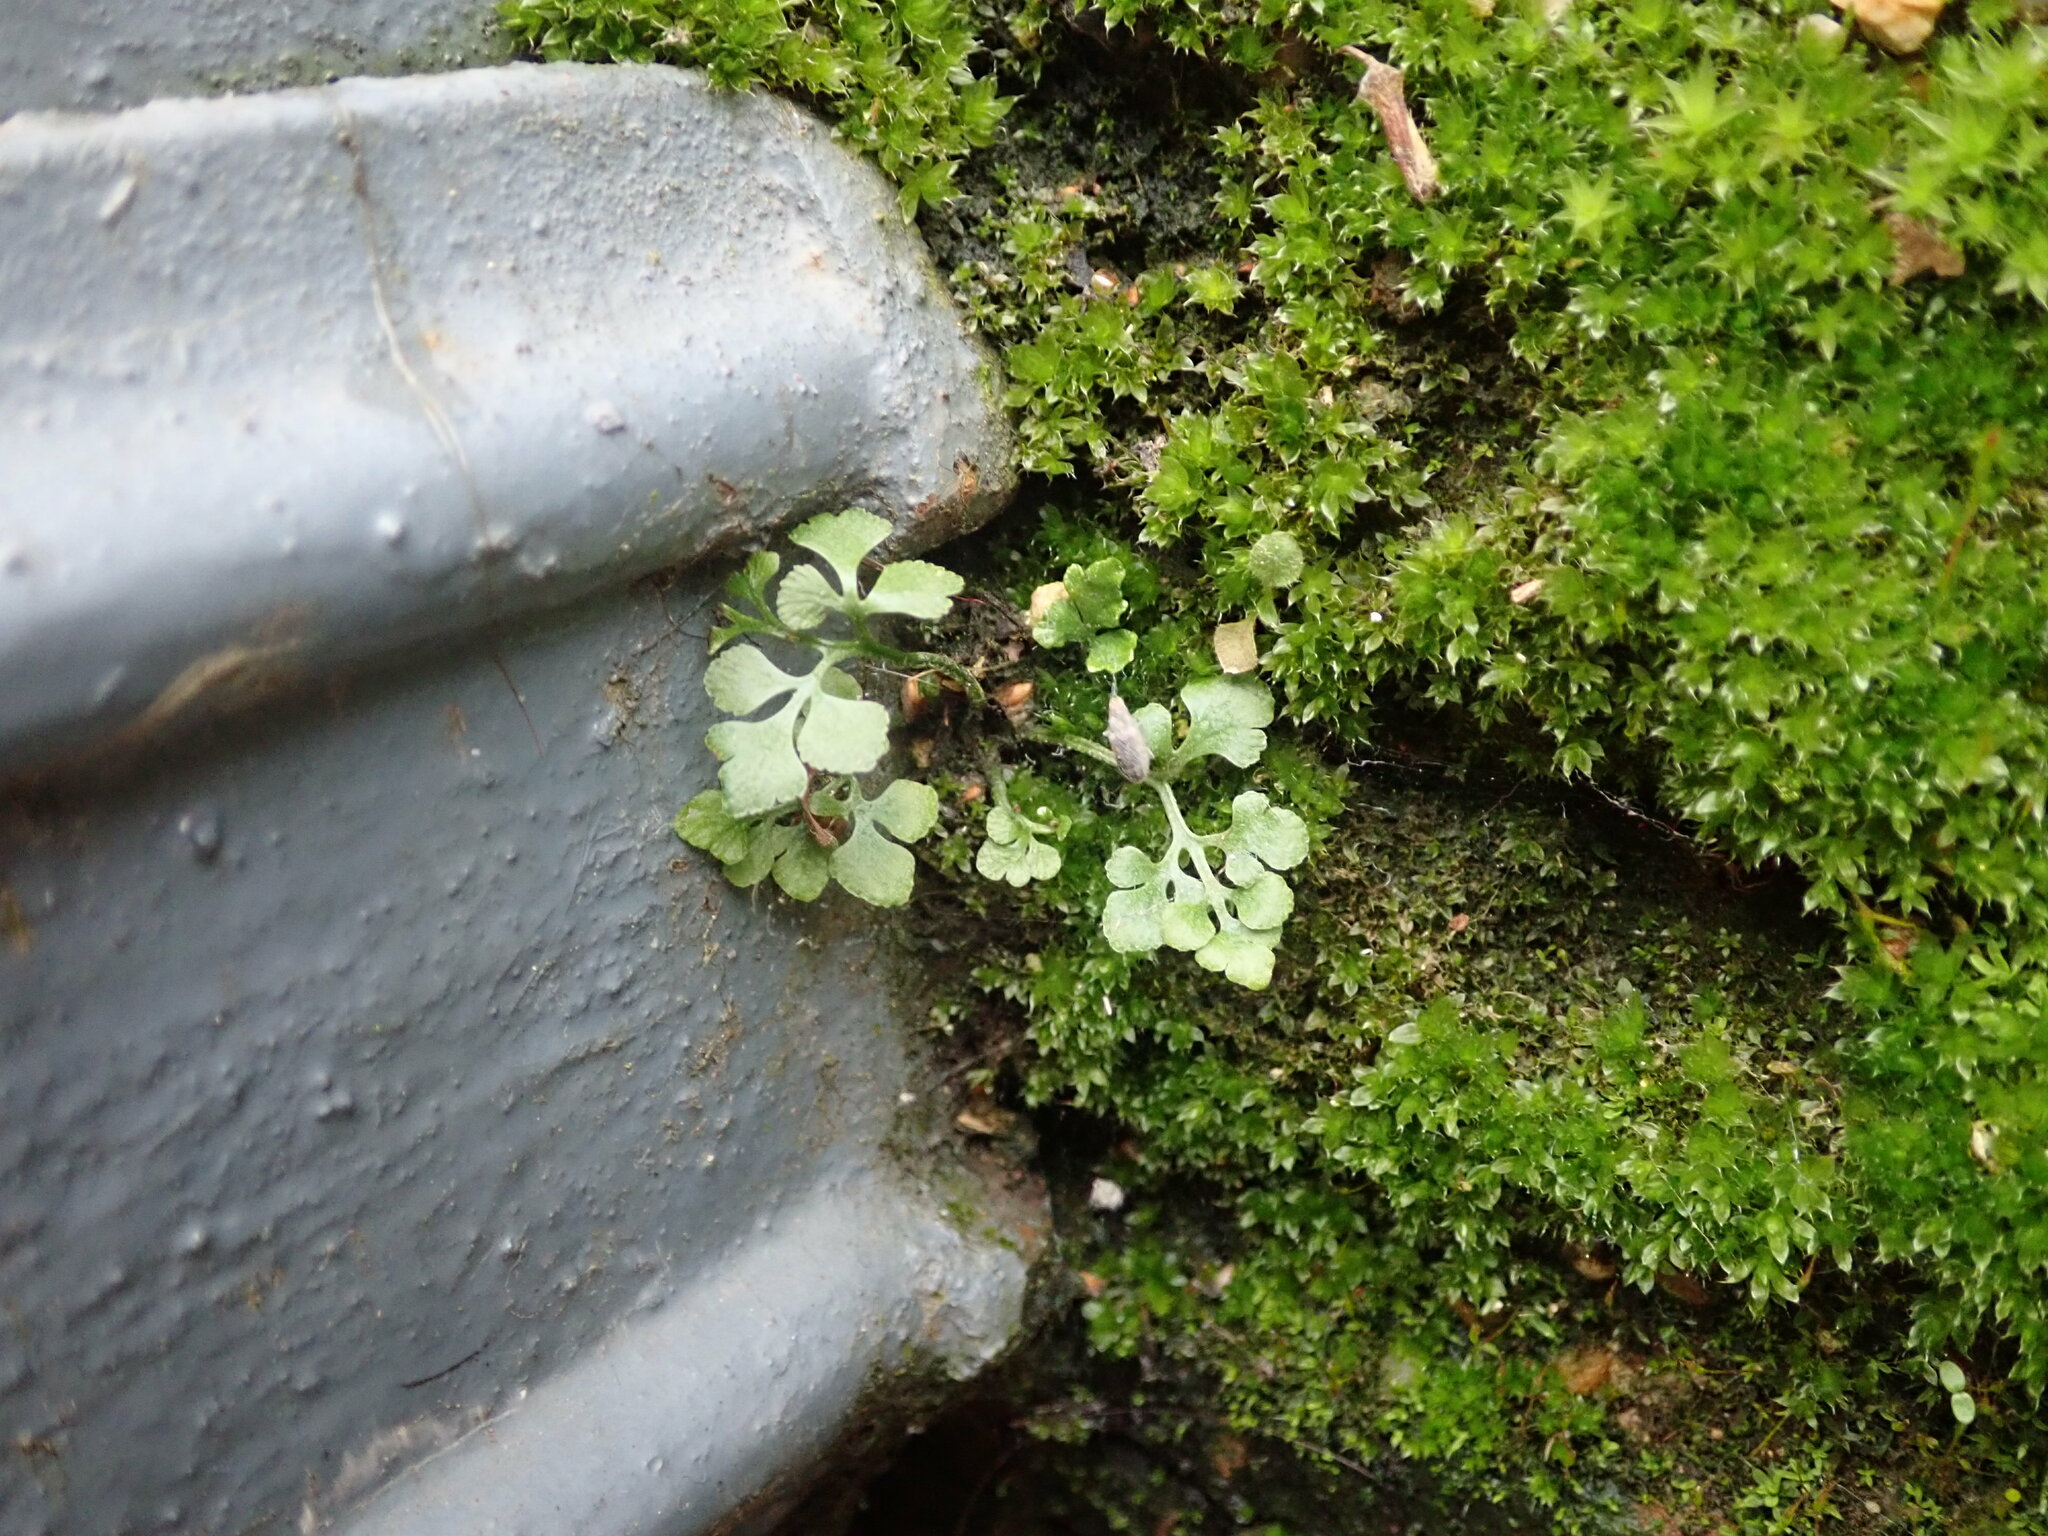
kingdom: Plantae
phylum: Tracheophyta
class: Polypodiopsida
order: Polypodiales
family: Aspleniaceae
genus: Asplenium
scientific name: Asplenium ruta-muraria
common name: Wall-rue
